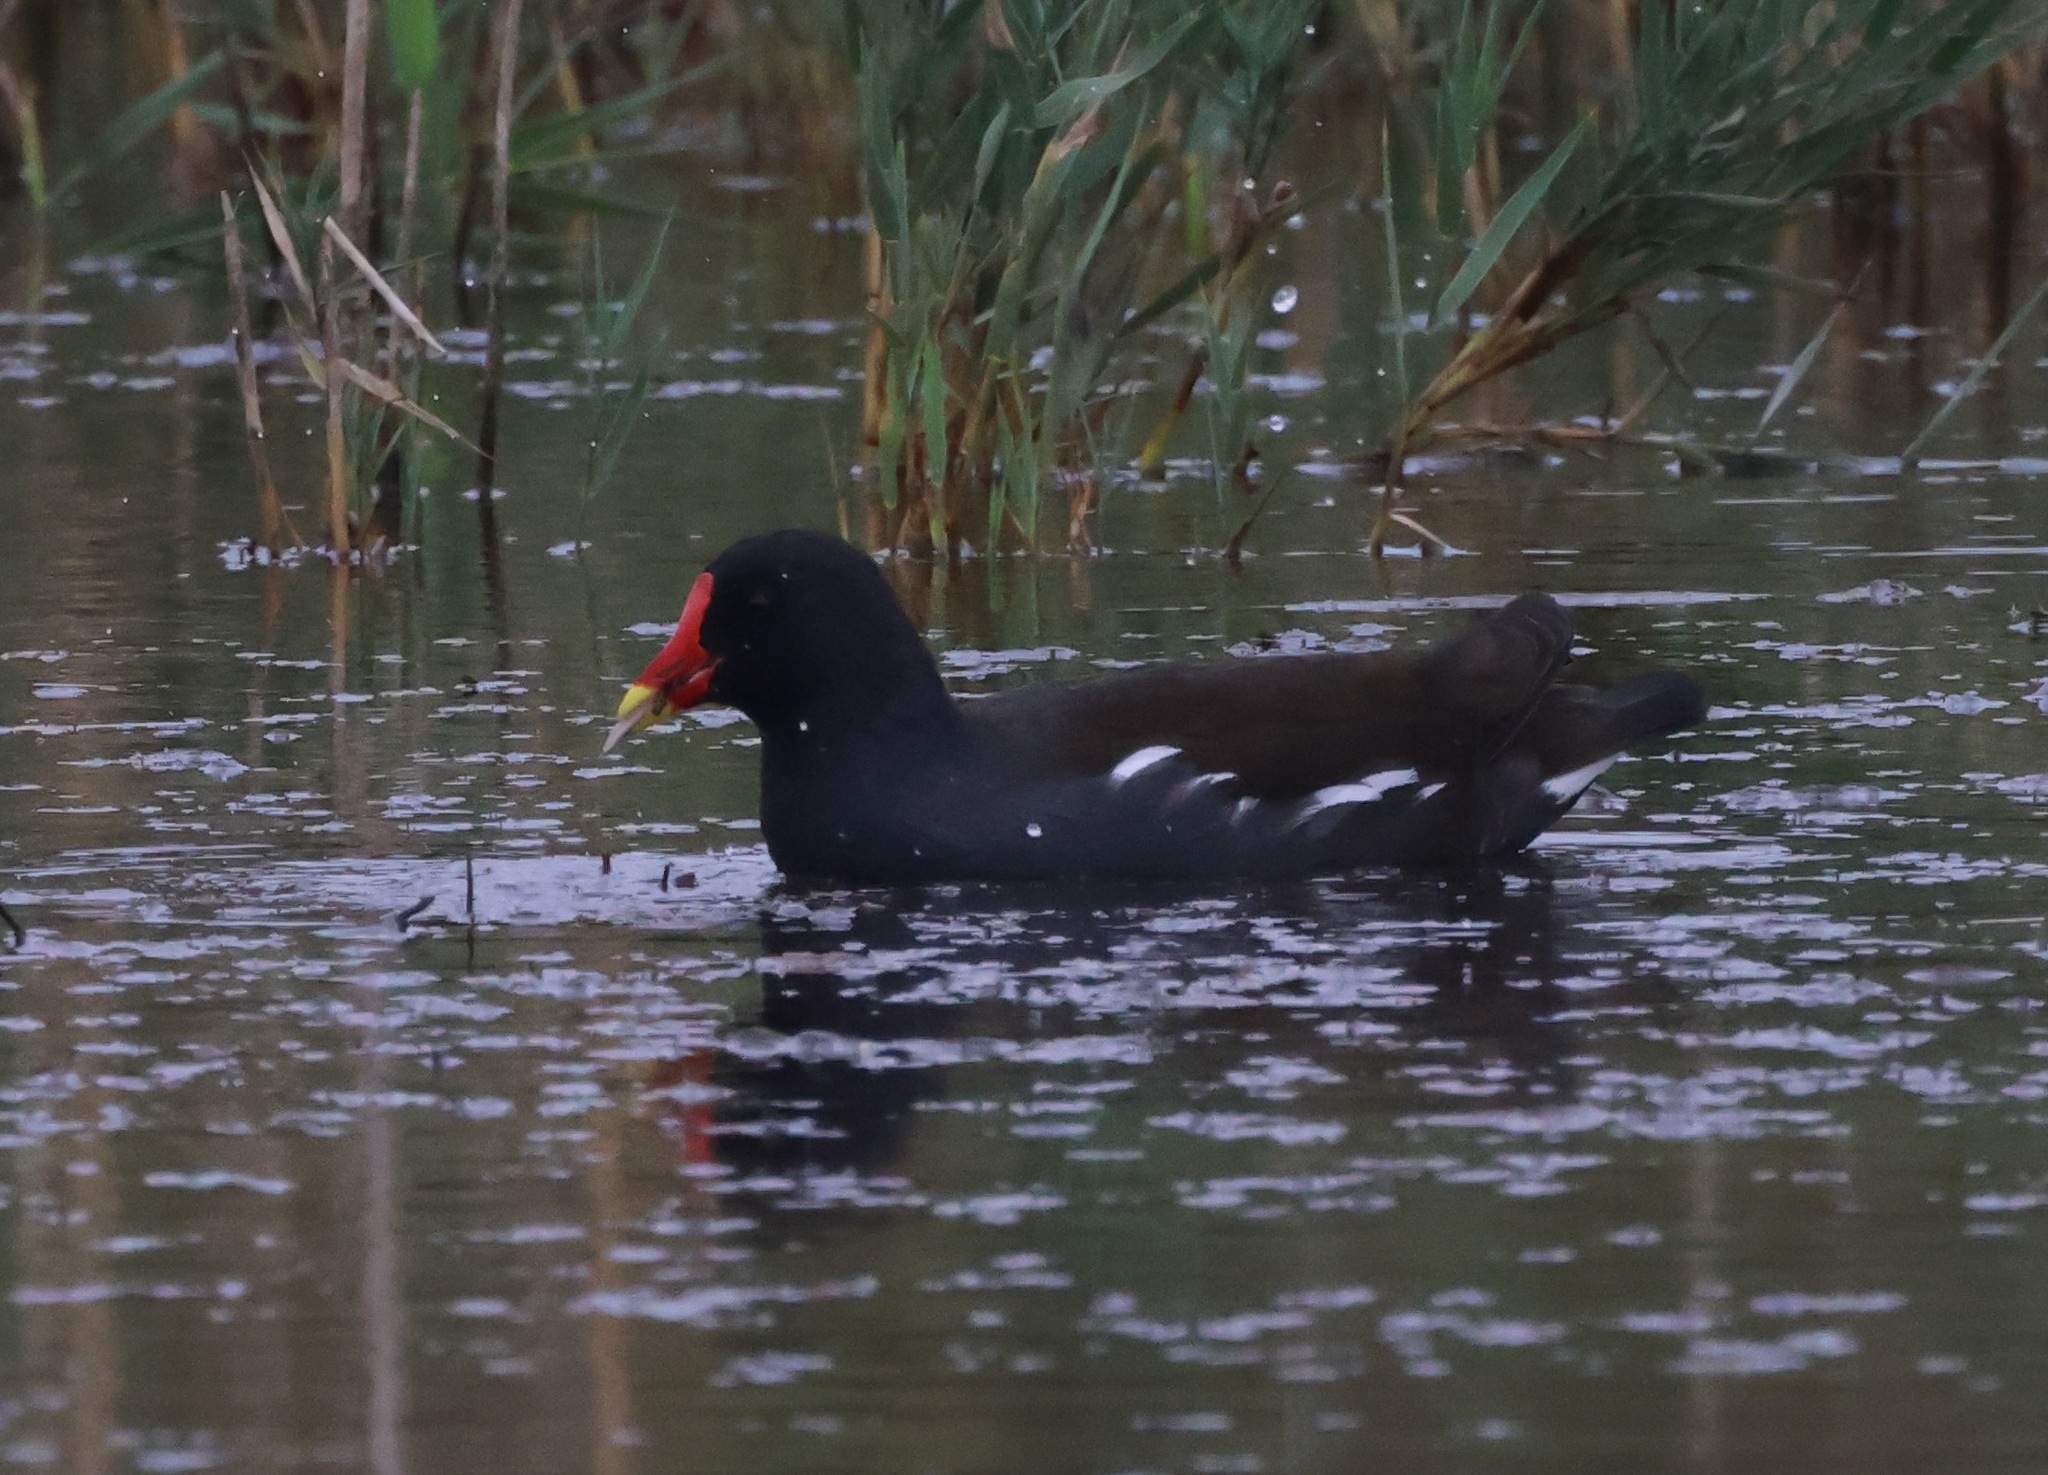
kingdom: Animalia
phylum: Chordata
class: Aves
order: Gruiformes
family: Rallidae
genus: Gallinula
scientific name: Gallinula chloropus
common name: Common moorhen
